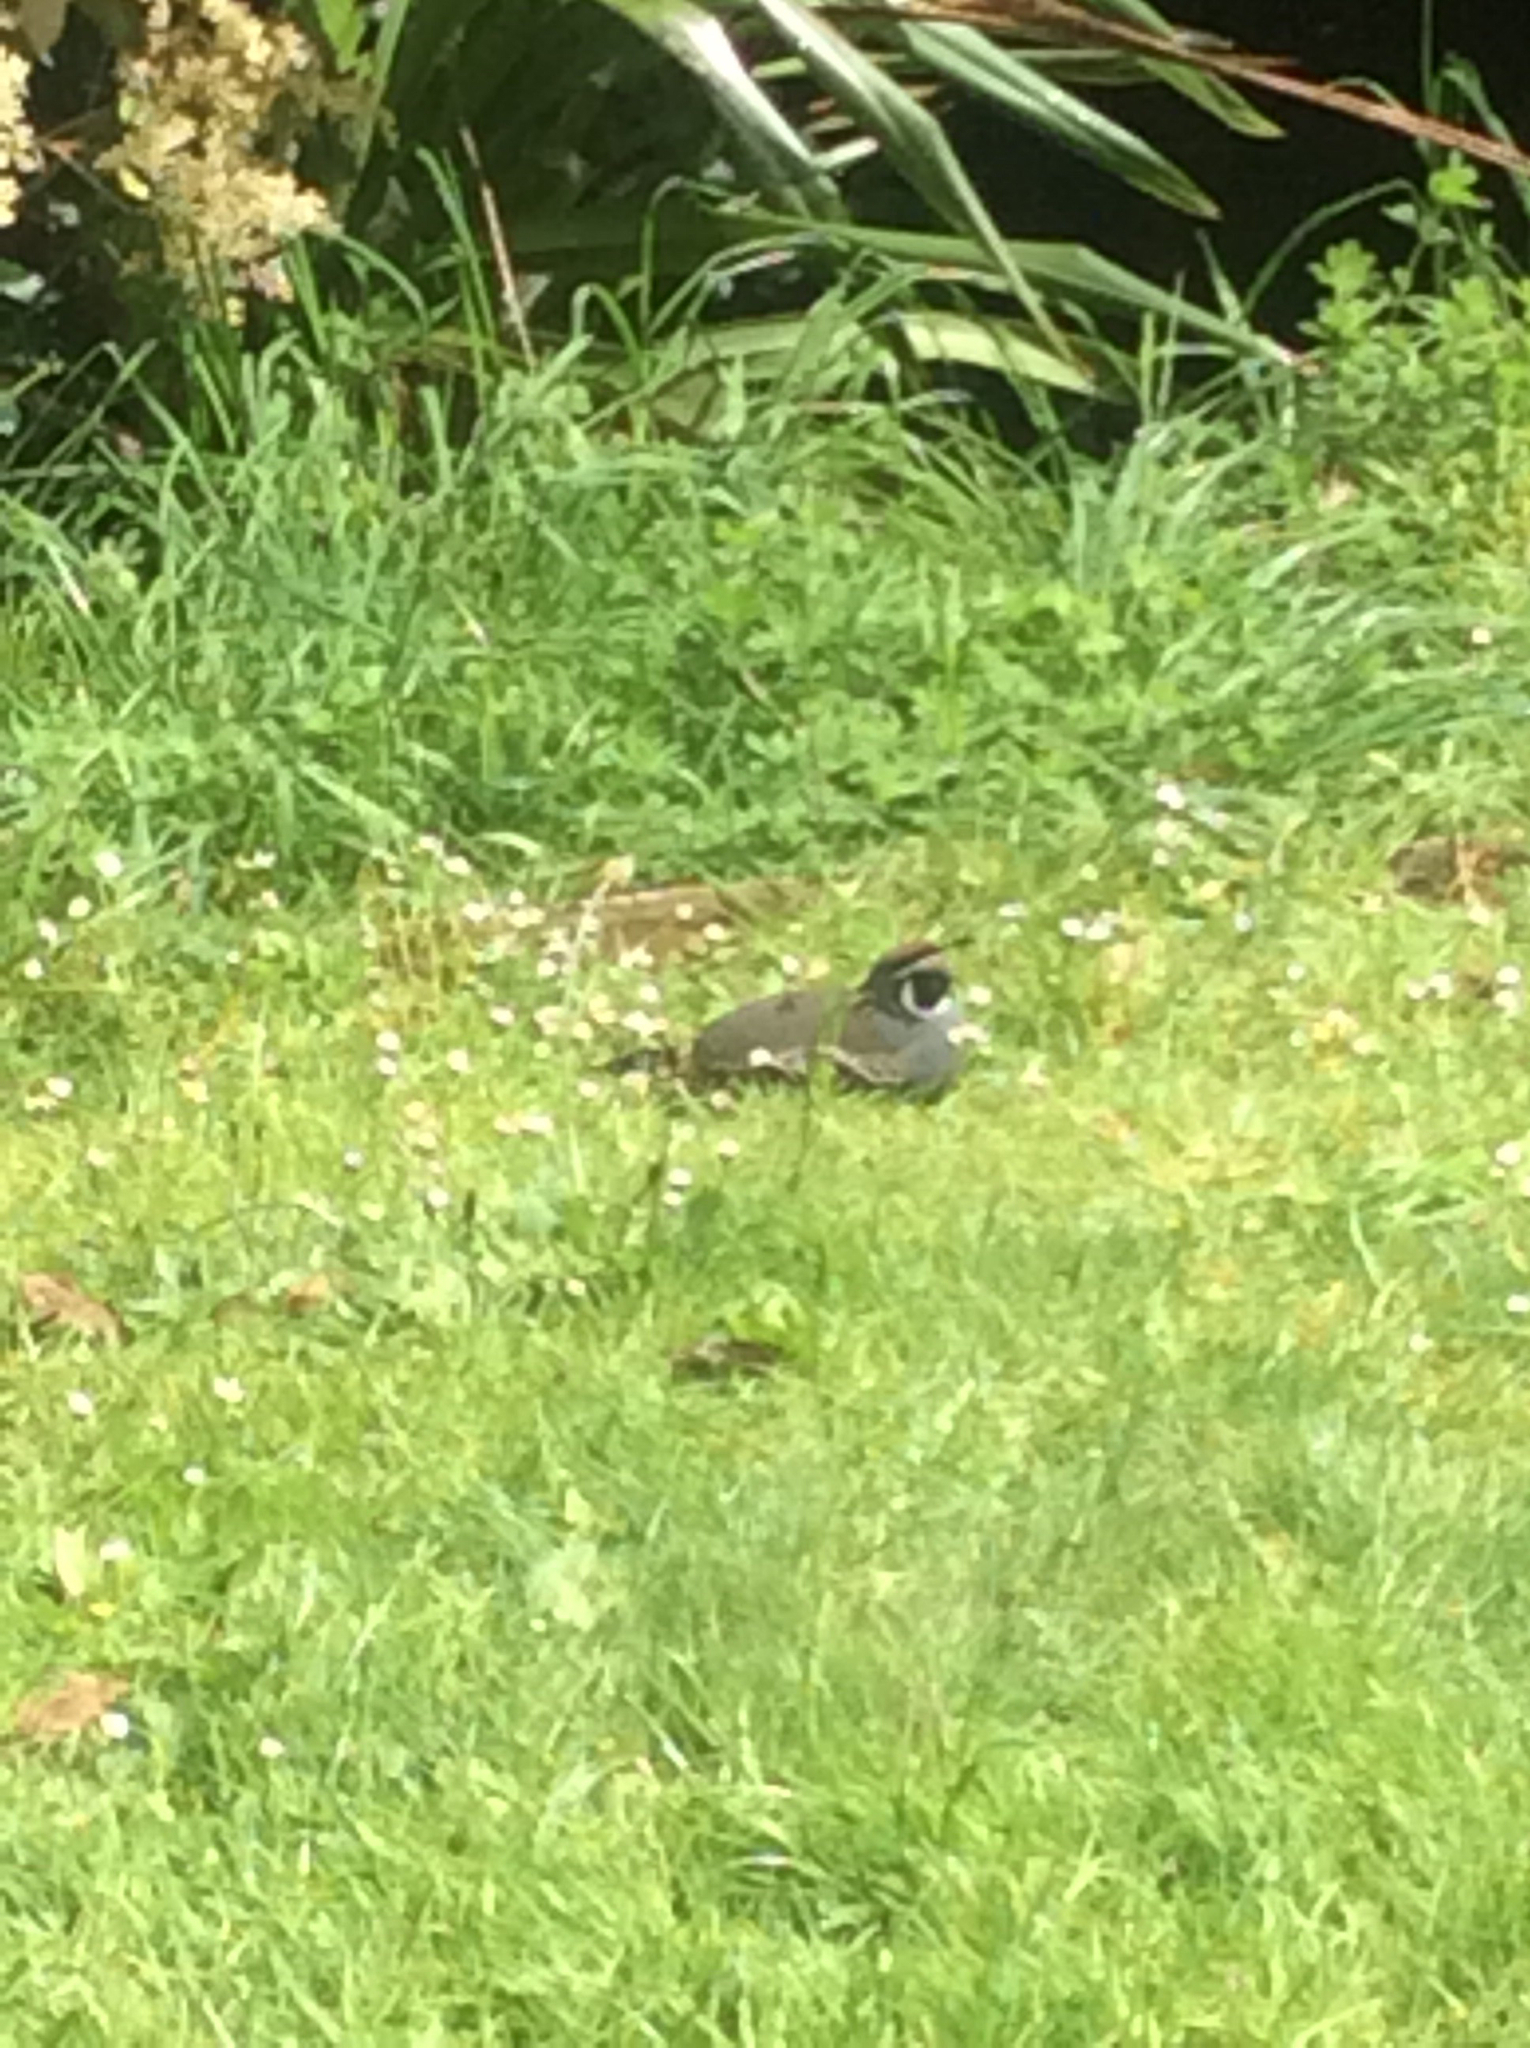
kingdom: Animalia
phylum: Chordata
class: Aves
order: Galliformes
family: Odontophoridae
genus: Callipepla
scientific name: Callipepla californica
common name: California quail
